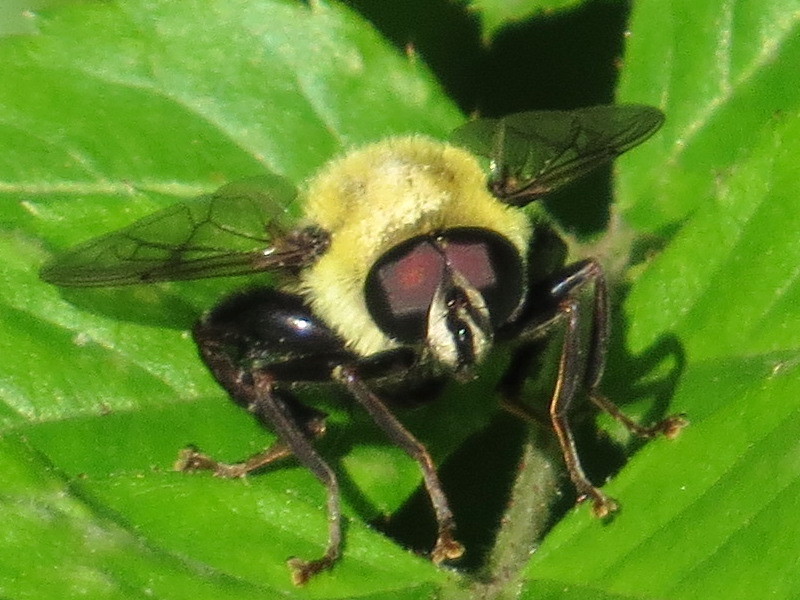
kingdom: Animalia
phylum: Arthropoda
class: Insecta
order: Diptera
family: Syrphidae
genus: Imatisma
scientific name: Imatisma posticata
